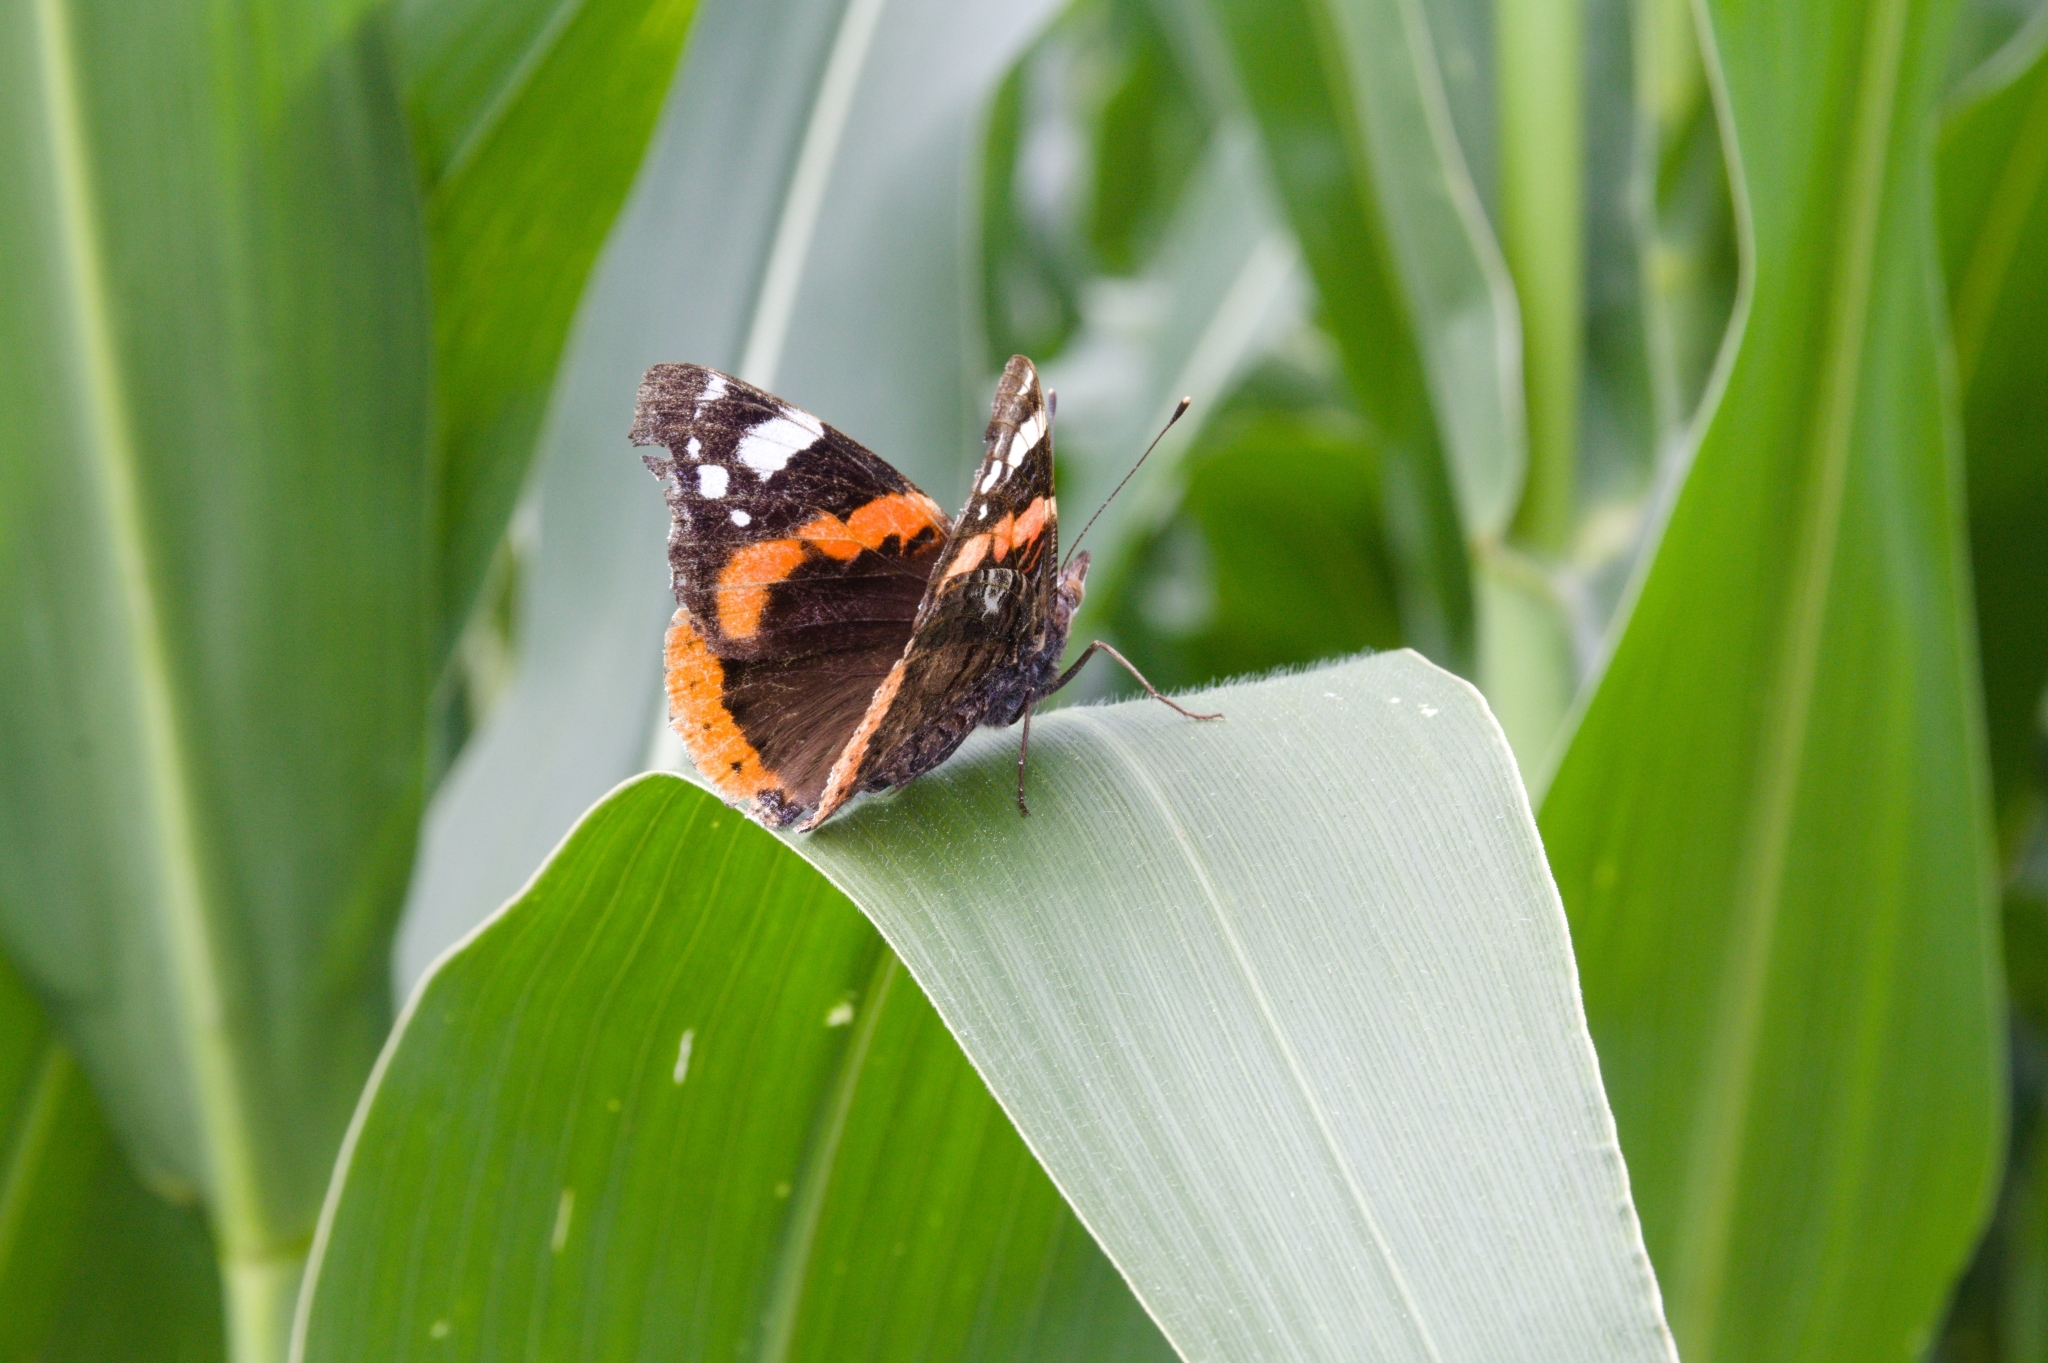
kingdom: Animalia
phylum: Arthropoda
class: Insecta
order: Lepidoptera
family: Nymphalidae
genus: Vanessa
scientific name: Vanessa atalanta
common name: Red admiral
